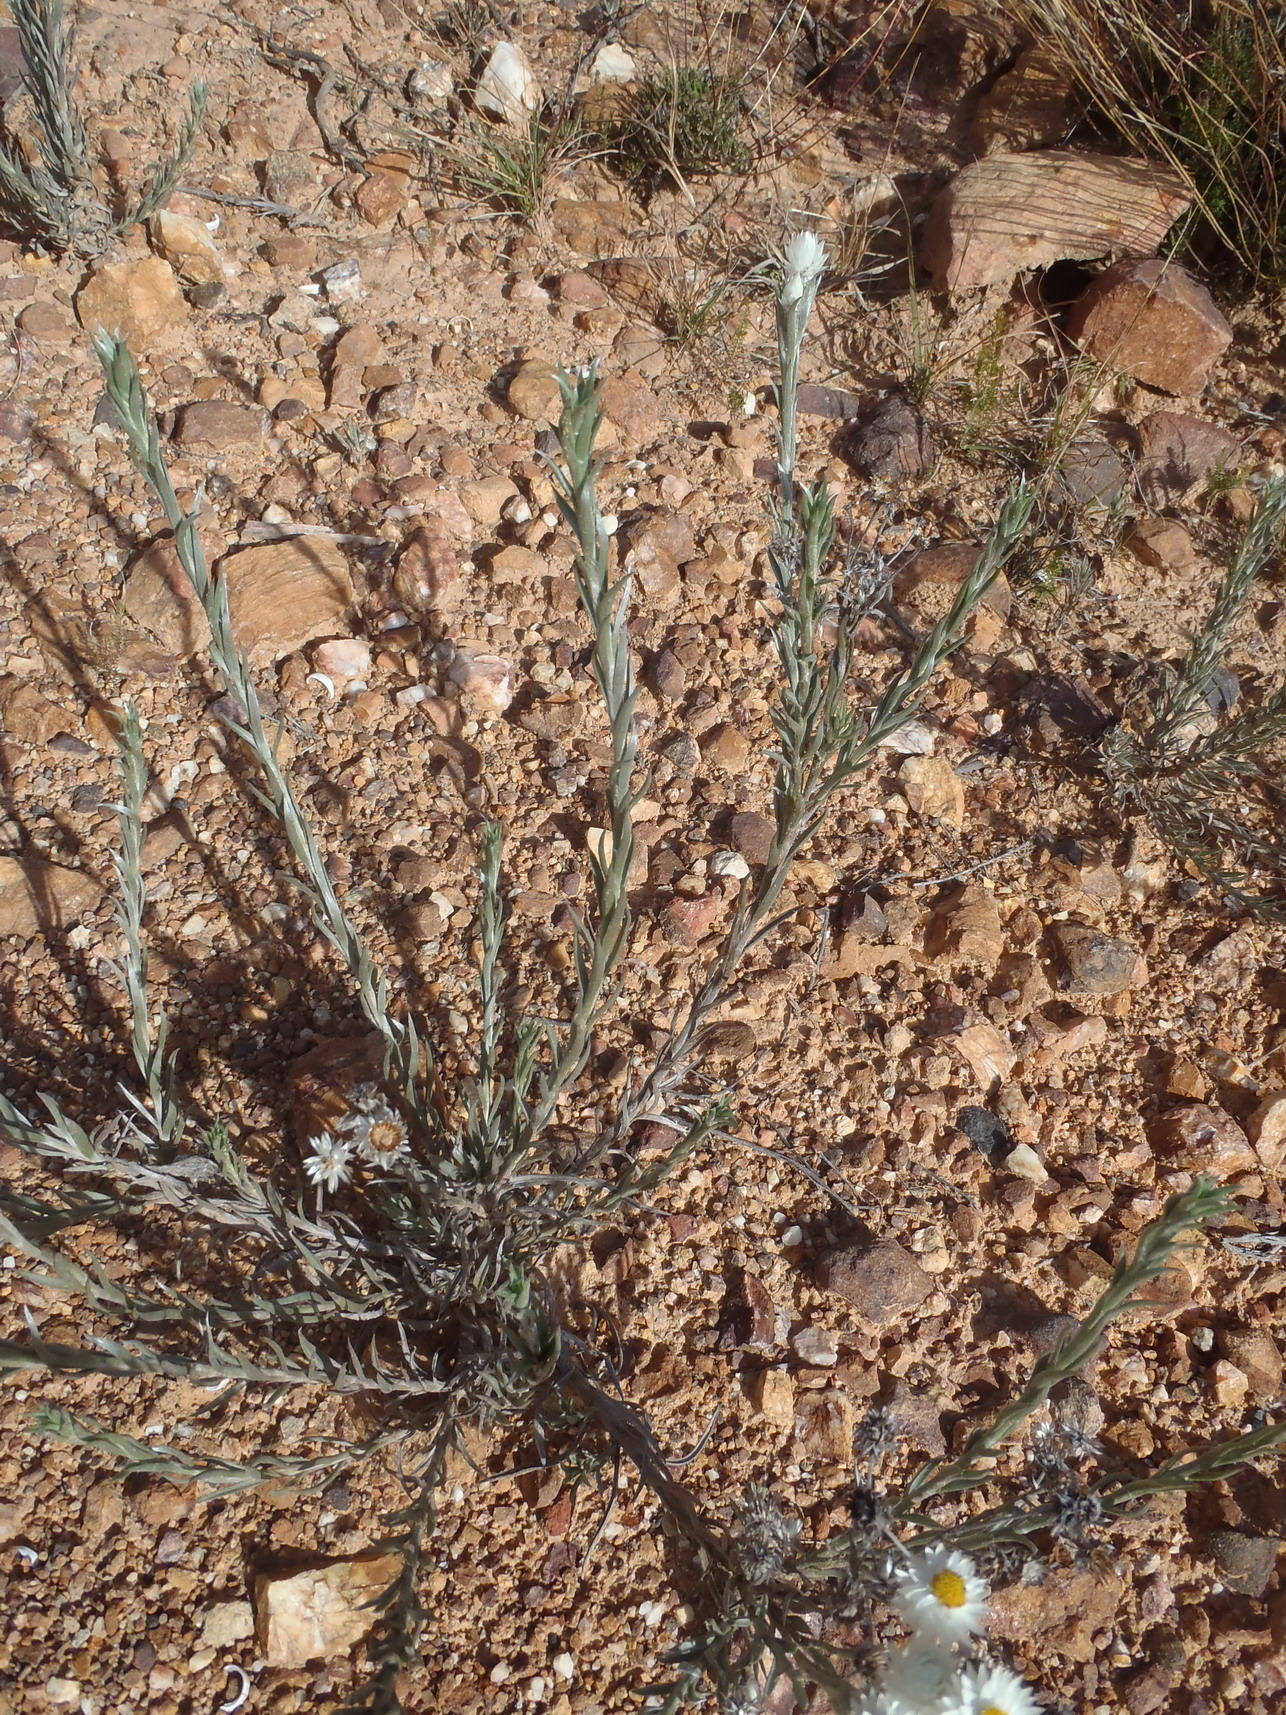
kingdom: Plantae
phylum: Tracheophyta
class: Magnoliopsida
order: Asterales
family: Asteraceae
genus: Achyranthemum
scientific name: Achyranthemum paniculatum
